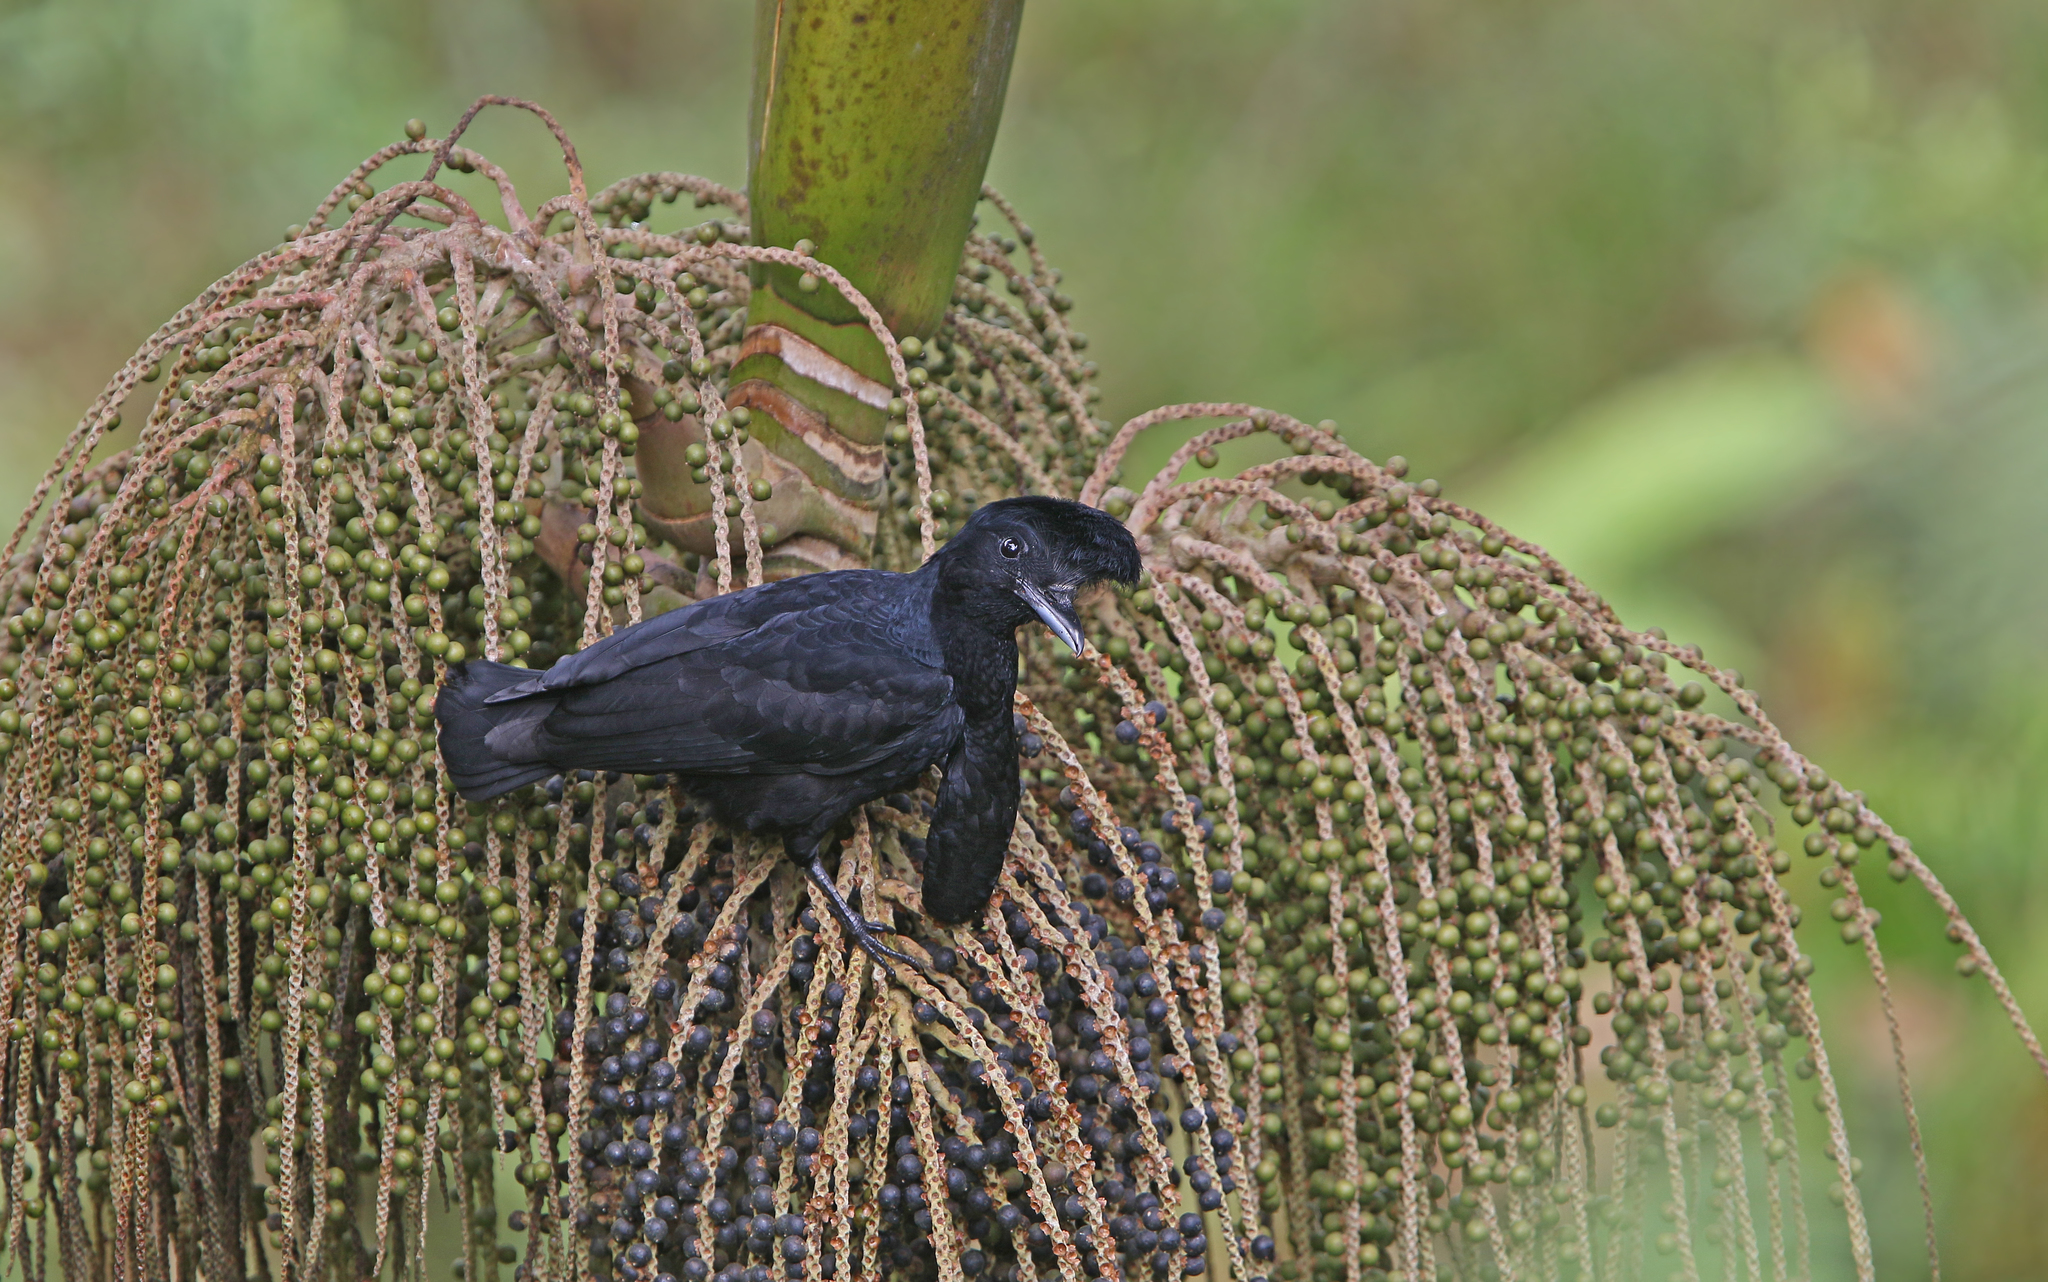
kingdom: Animalia
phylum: Chordata
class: Aves
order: Passeriformes
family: Cotingidae
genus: Cephalopterus
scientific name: Cephalopterus penduliger
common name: Long-wattled umbrellabird
